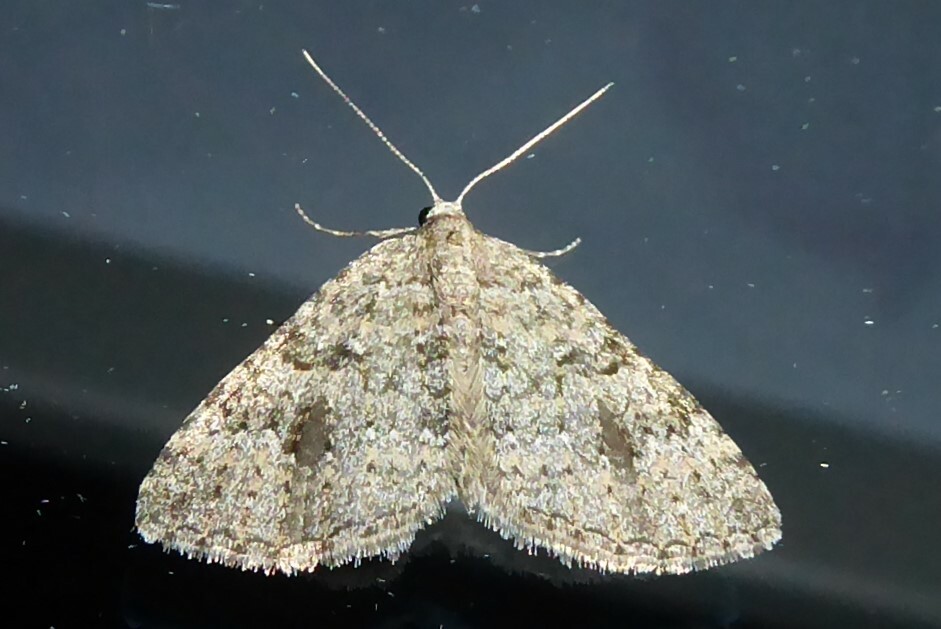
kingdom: Animalia
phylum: Arthropoda
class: Insecta
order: Lepidoptera
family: Geometridae
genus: Helastia
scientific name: Helastia corcularia
